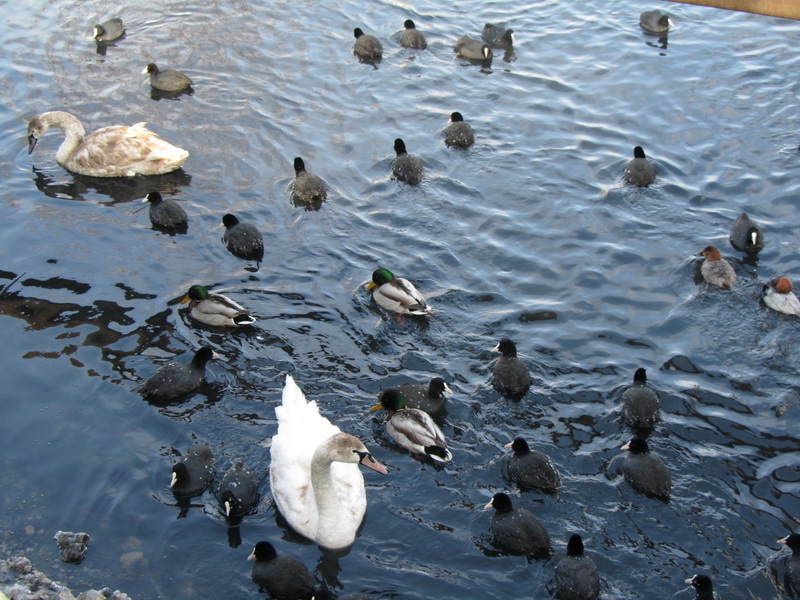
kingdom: Animalia
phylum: Chordata
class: Aves
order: Anseriformes
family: Anatidae
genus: Anas
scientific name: Anas platyrhynchos
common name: Mallard
